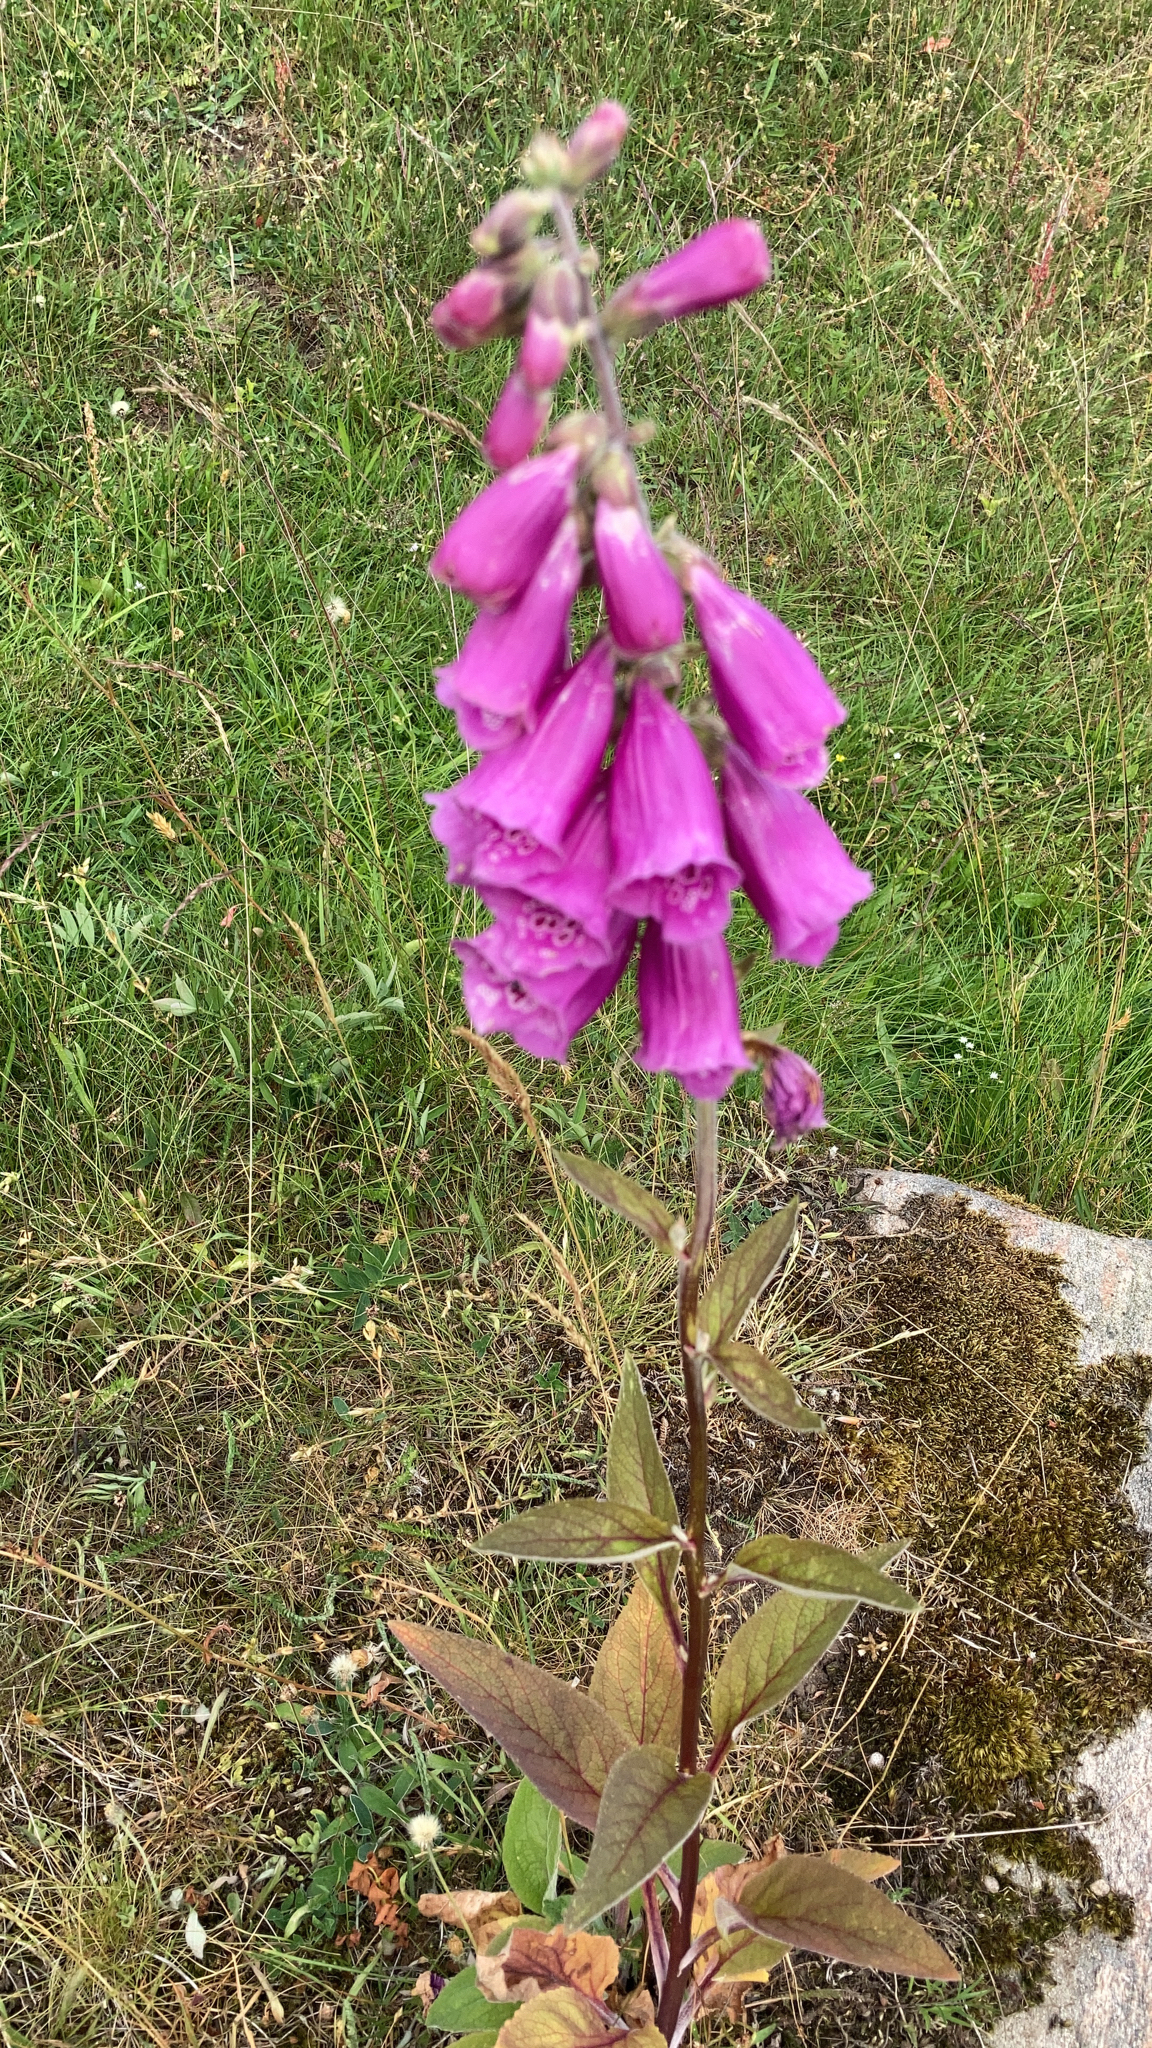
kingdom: Plantae
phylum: Tracheophyta
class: Magnoliopsida
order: Lamiales
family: Plantaginaceae
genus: Digitalis
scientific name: Digitalis purpurea
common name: Foxglove
